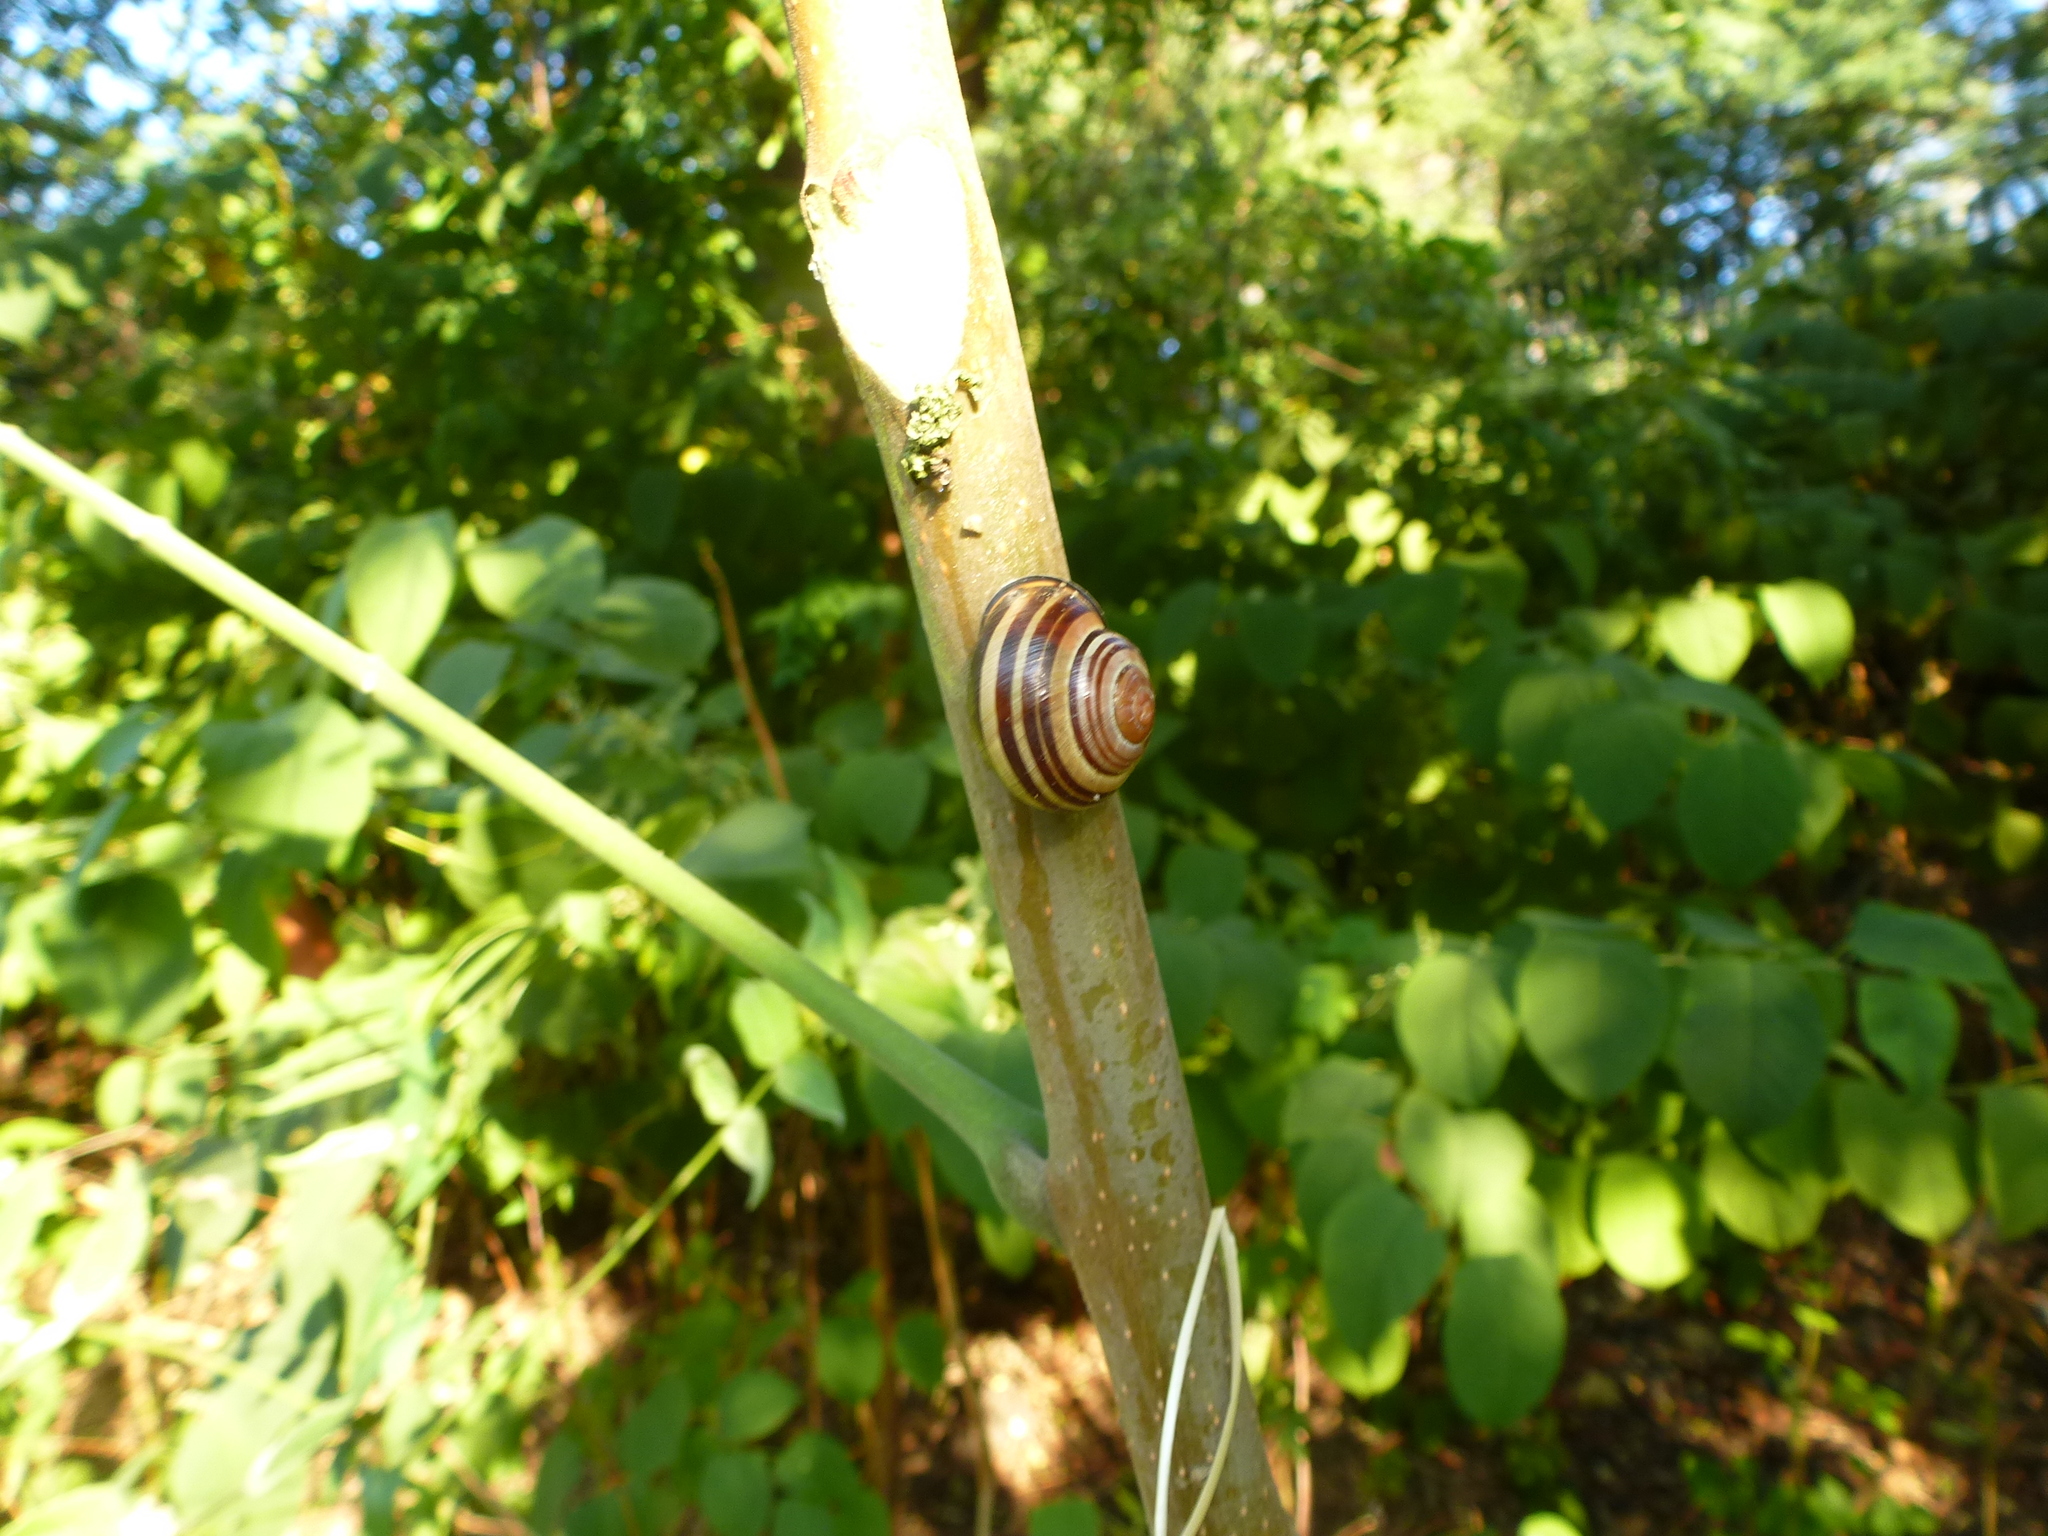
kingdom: Animalia
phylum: Mollusca
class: Gastropoda
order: Stylommatophora
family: Helicidae
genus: Cepaea
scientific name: Cepaea nemoralis
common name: Grovesnail
